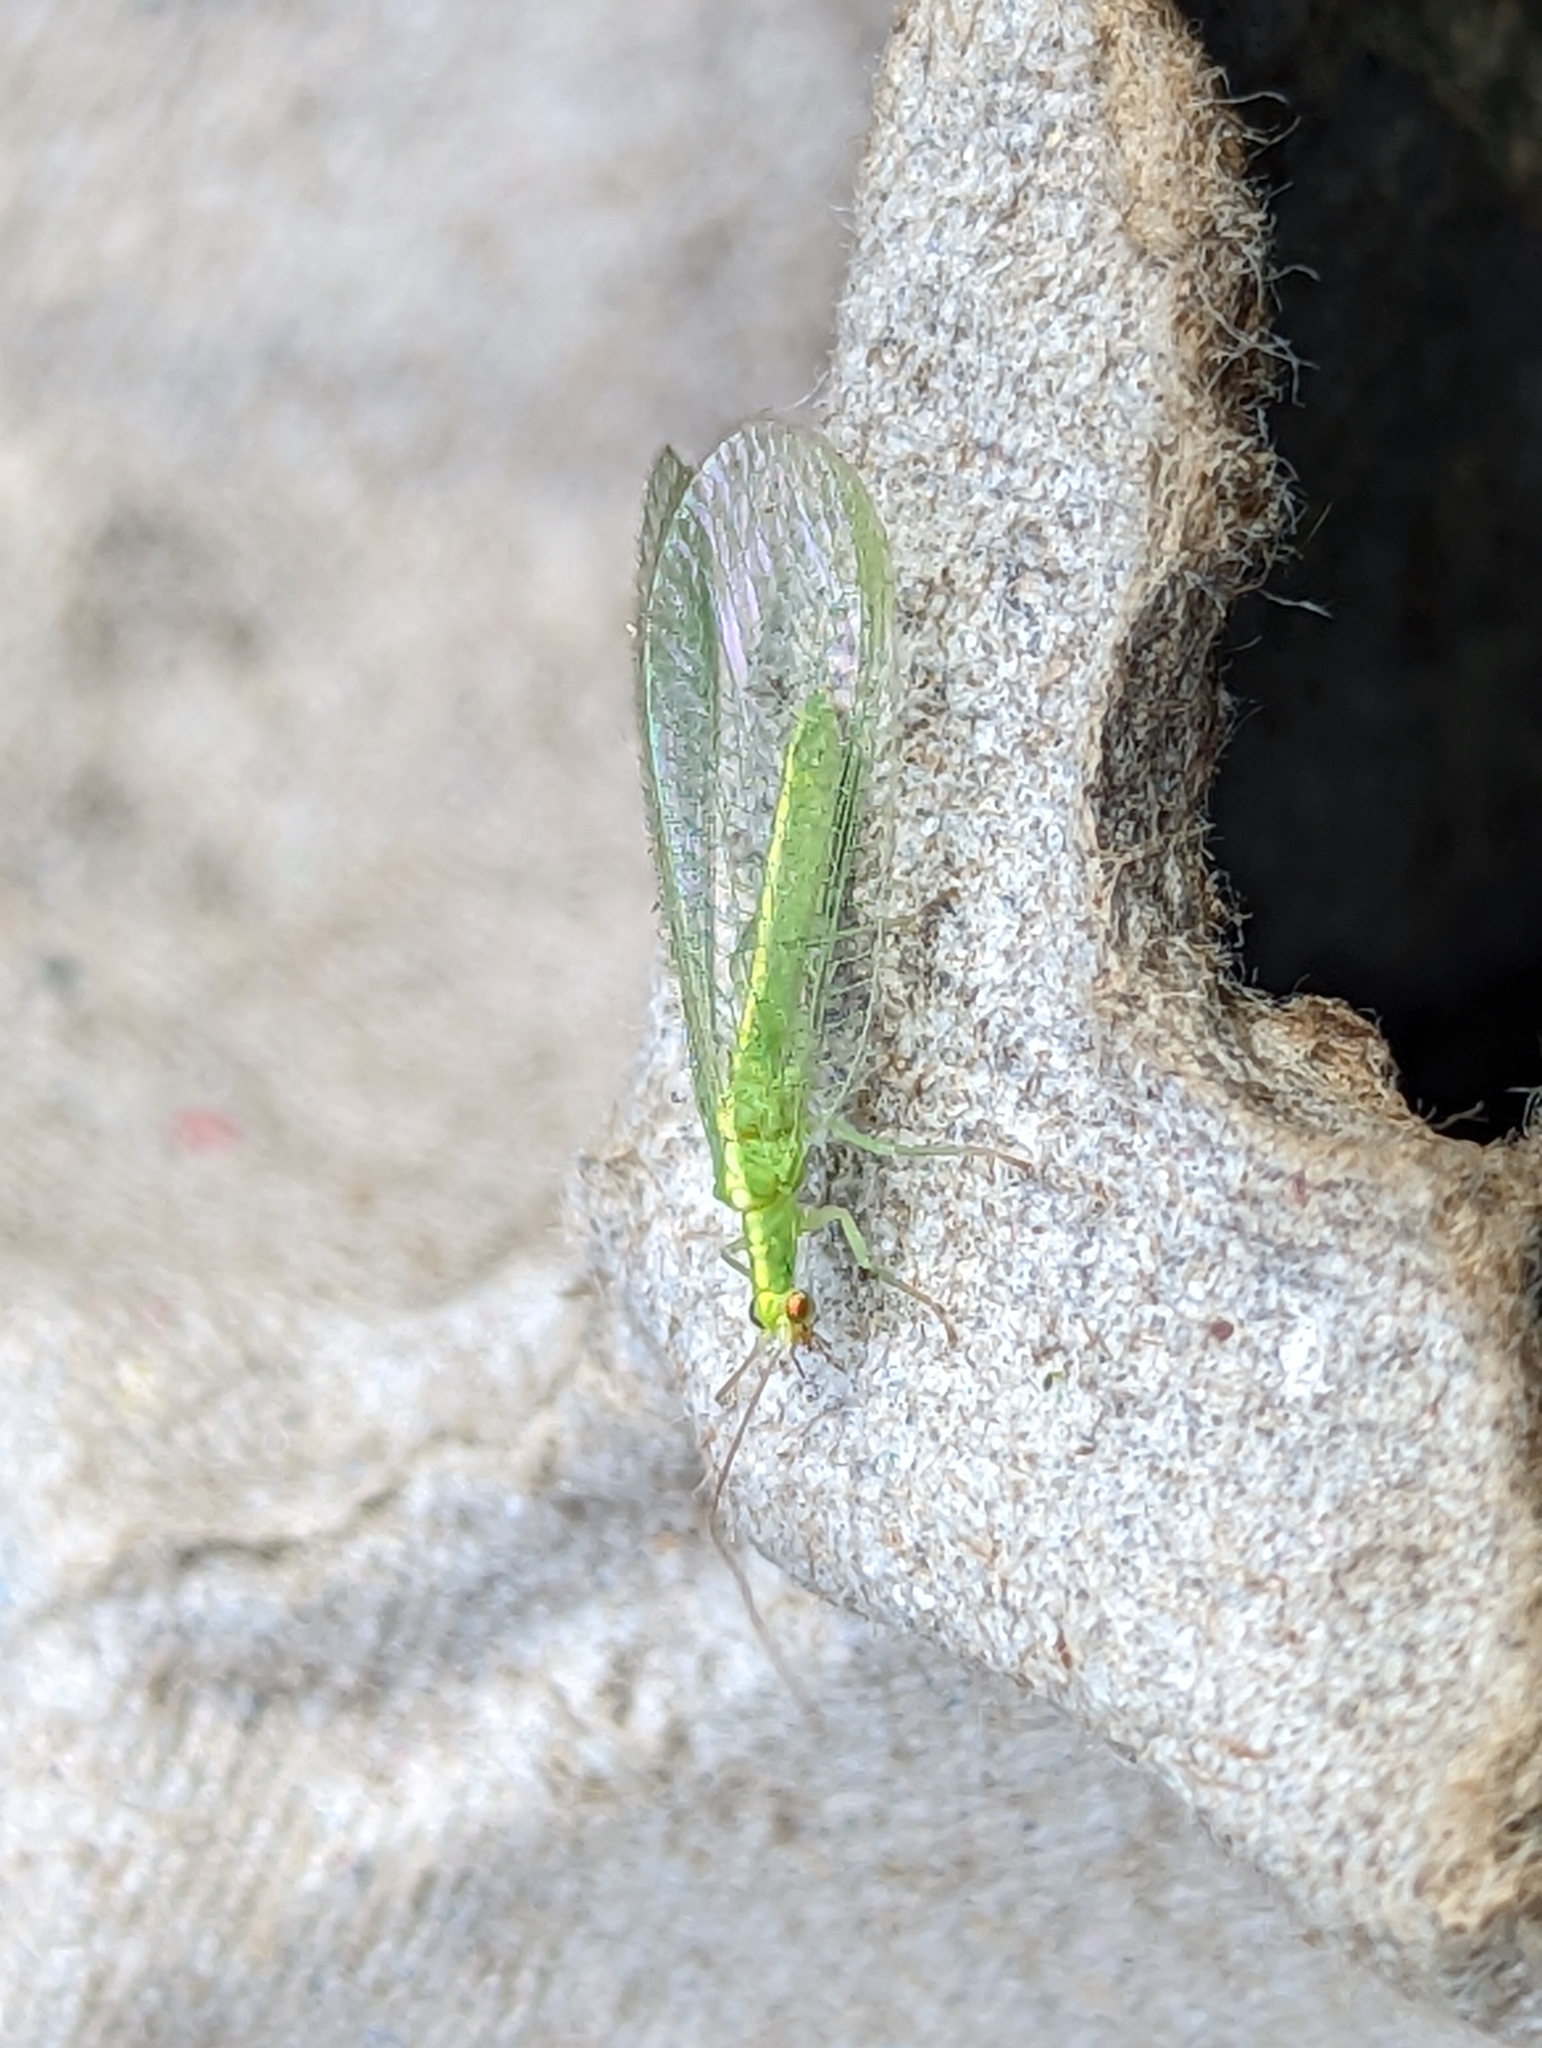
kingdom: Animalia
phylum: Arthropoda
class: Insecta
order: Neuroptera
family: Chrysopidae
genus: Chrysoperla
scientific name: Chrysoperla
